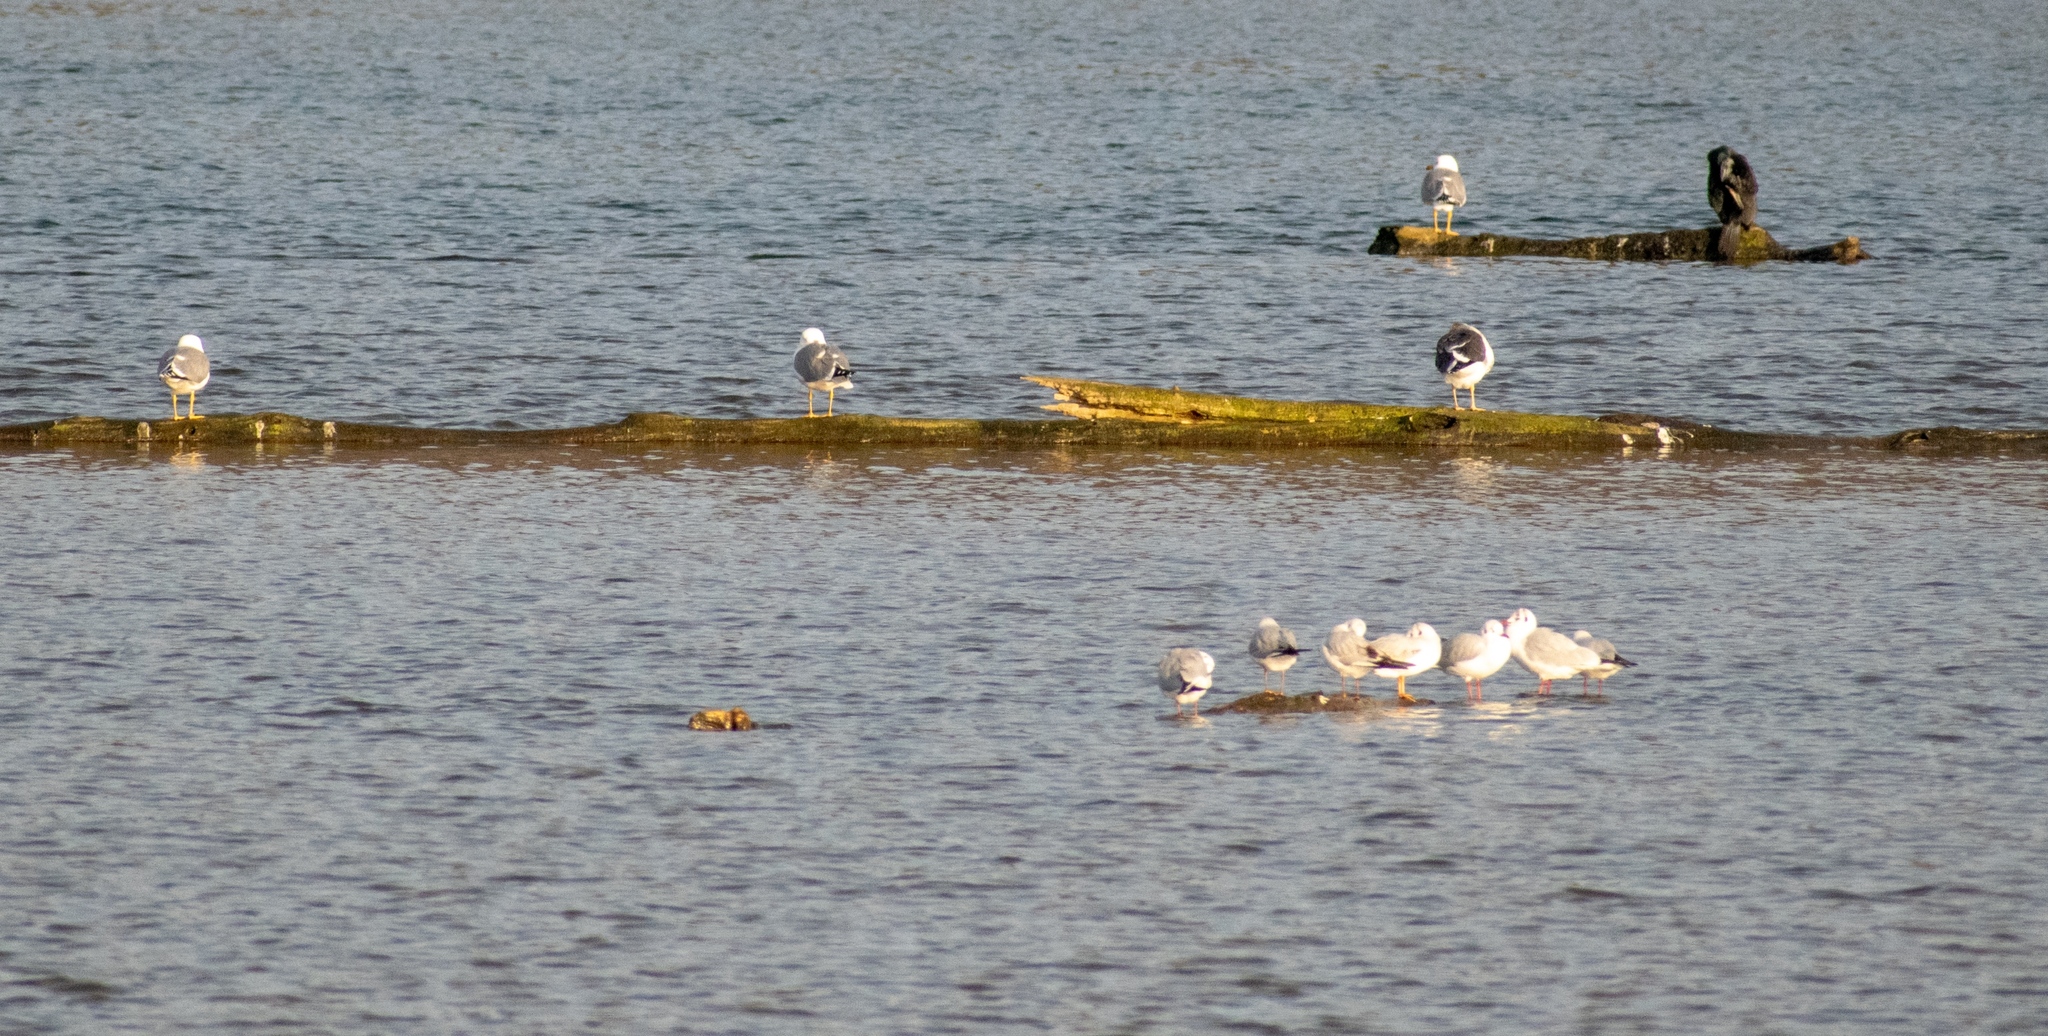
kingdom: Animalia
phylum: Chordata
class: Aves
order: Charadriiformes
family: Laridae
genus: Larus
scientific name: Larus michahellis
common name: Yellow-legged gull
